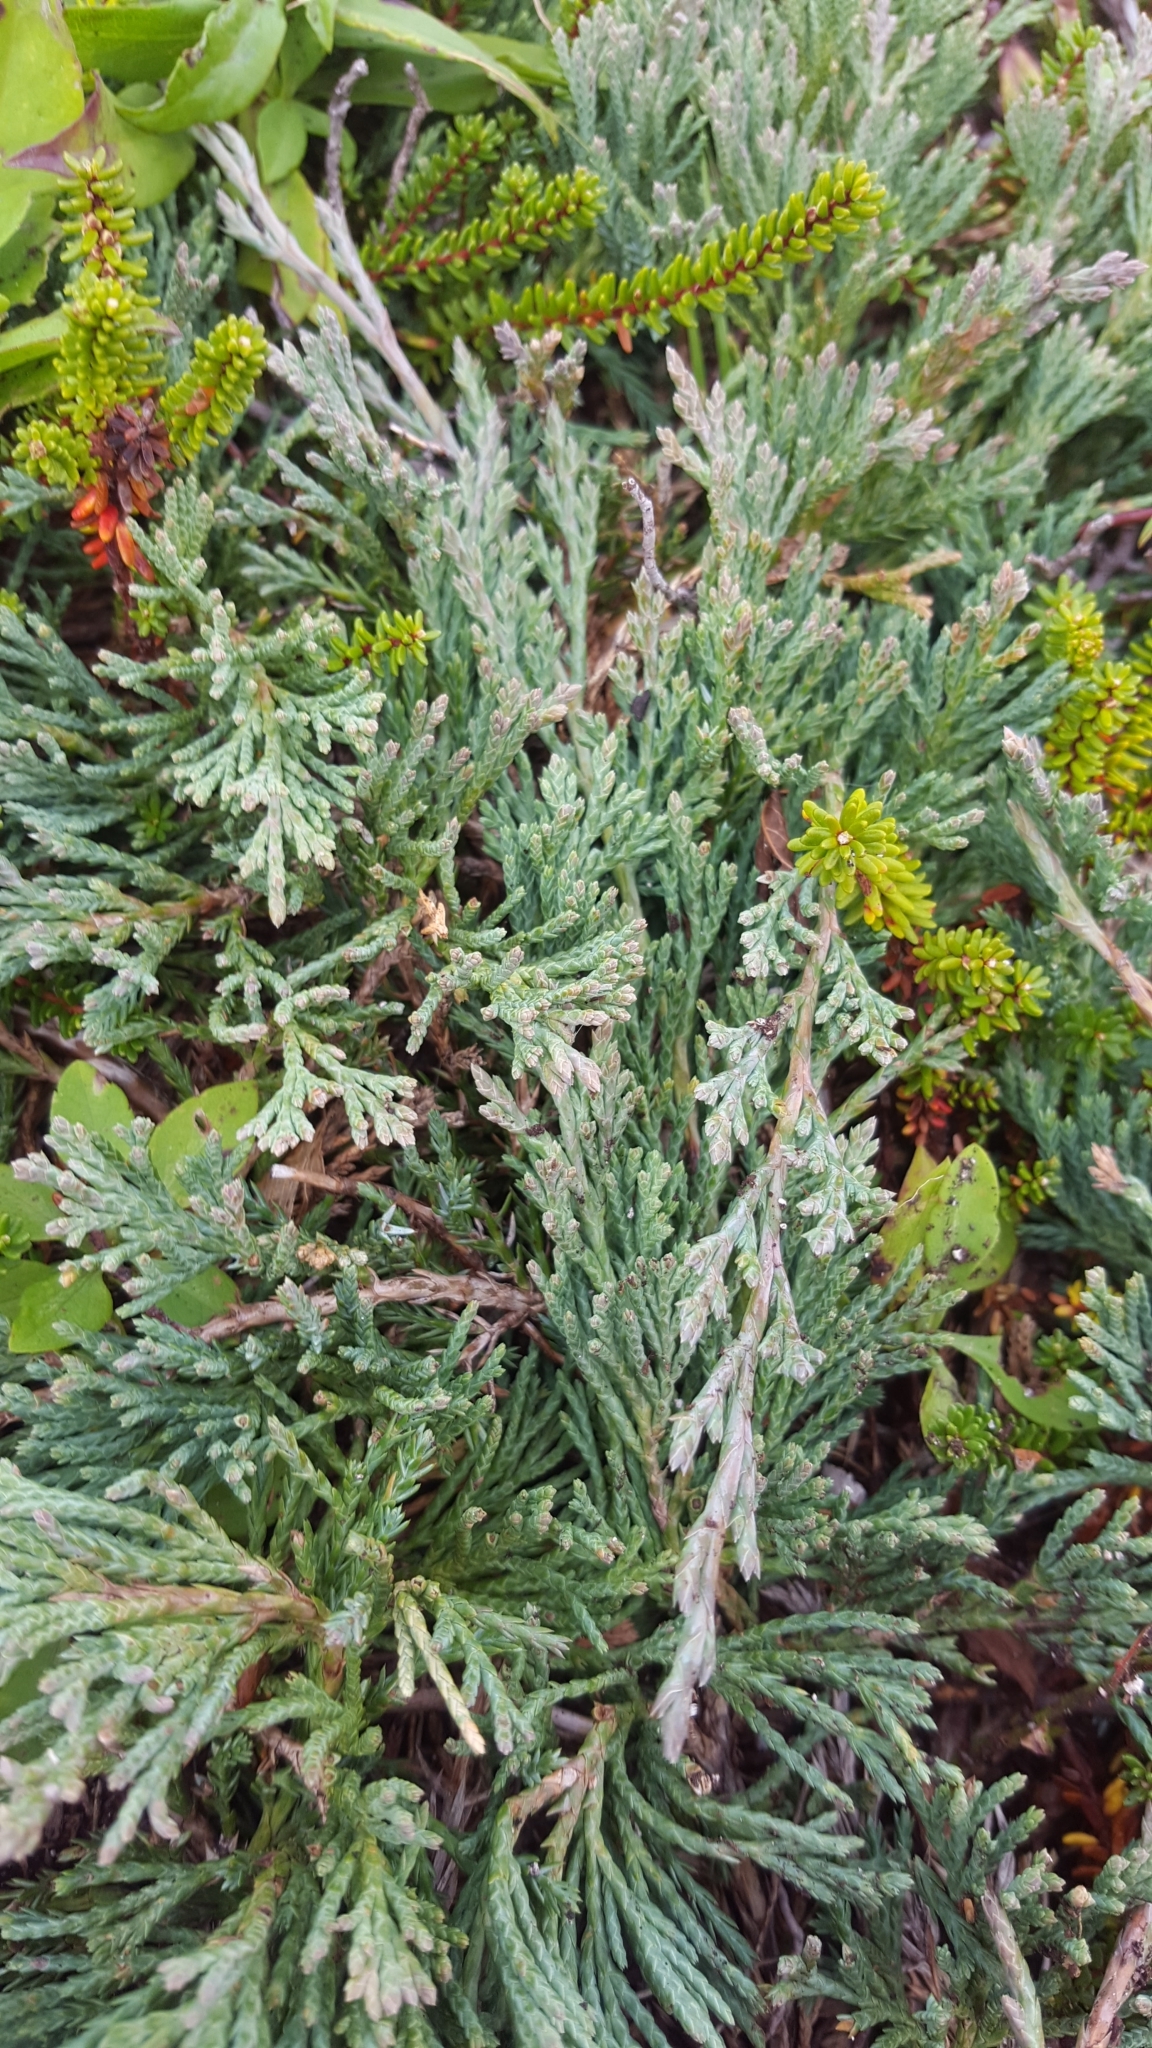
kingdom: Plantae
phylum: Tracheophyta
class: Pinopsida
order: Pinales
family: Cupressaceae
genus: Juniperus
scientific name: Juniperus horizontalis
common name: Creeping juniper
